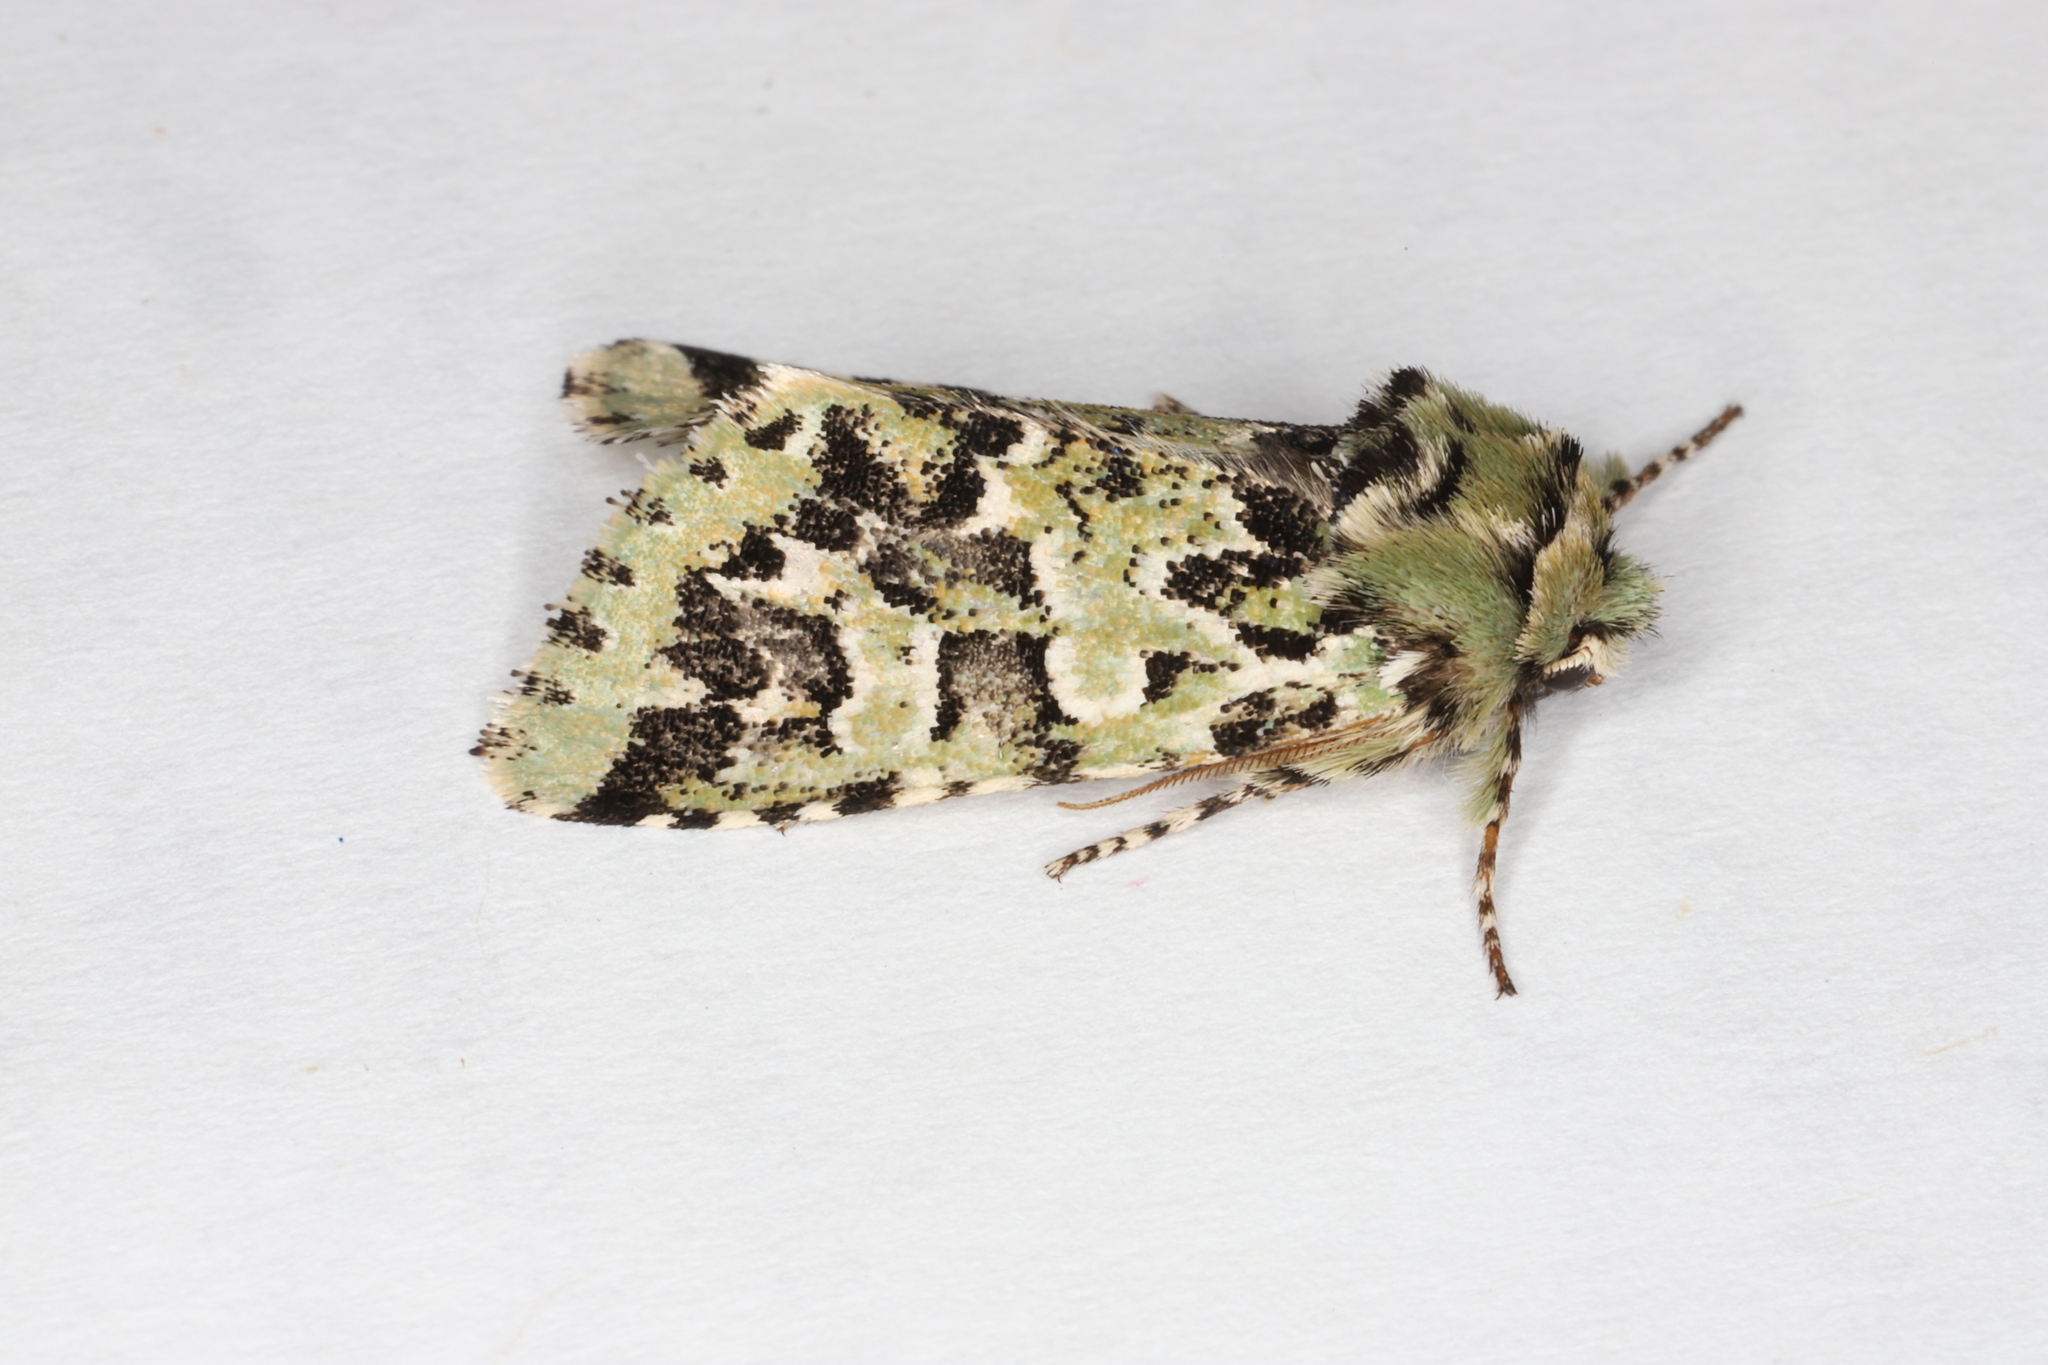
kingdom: Animalia
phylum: Arthropoda
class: Insecta
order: Lepidoptera
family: Noctuidae
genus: Feralia
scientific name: Feralia comstocki
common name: Comstock's sallow
